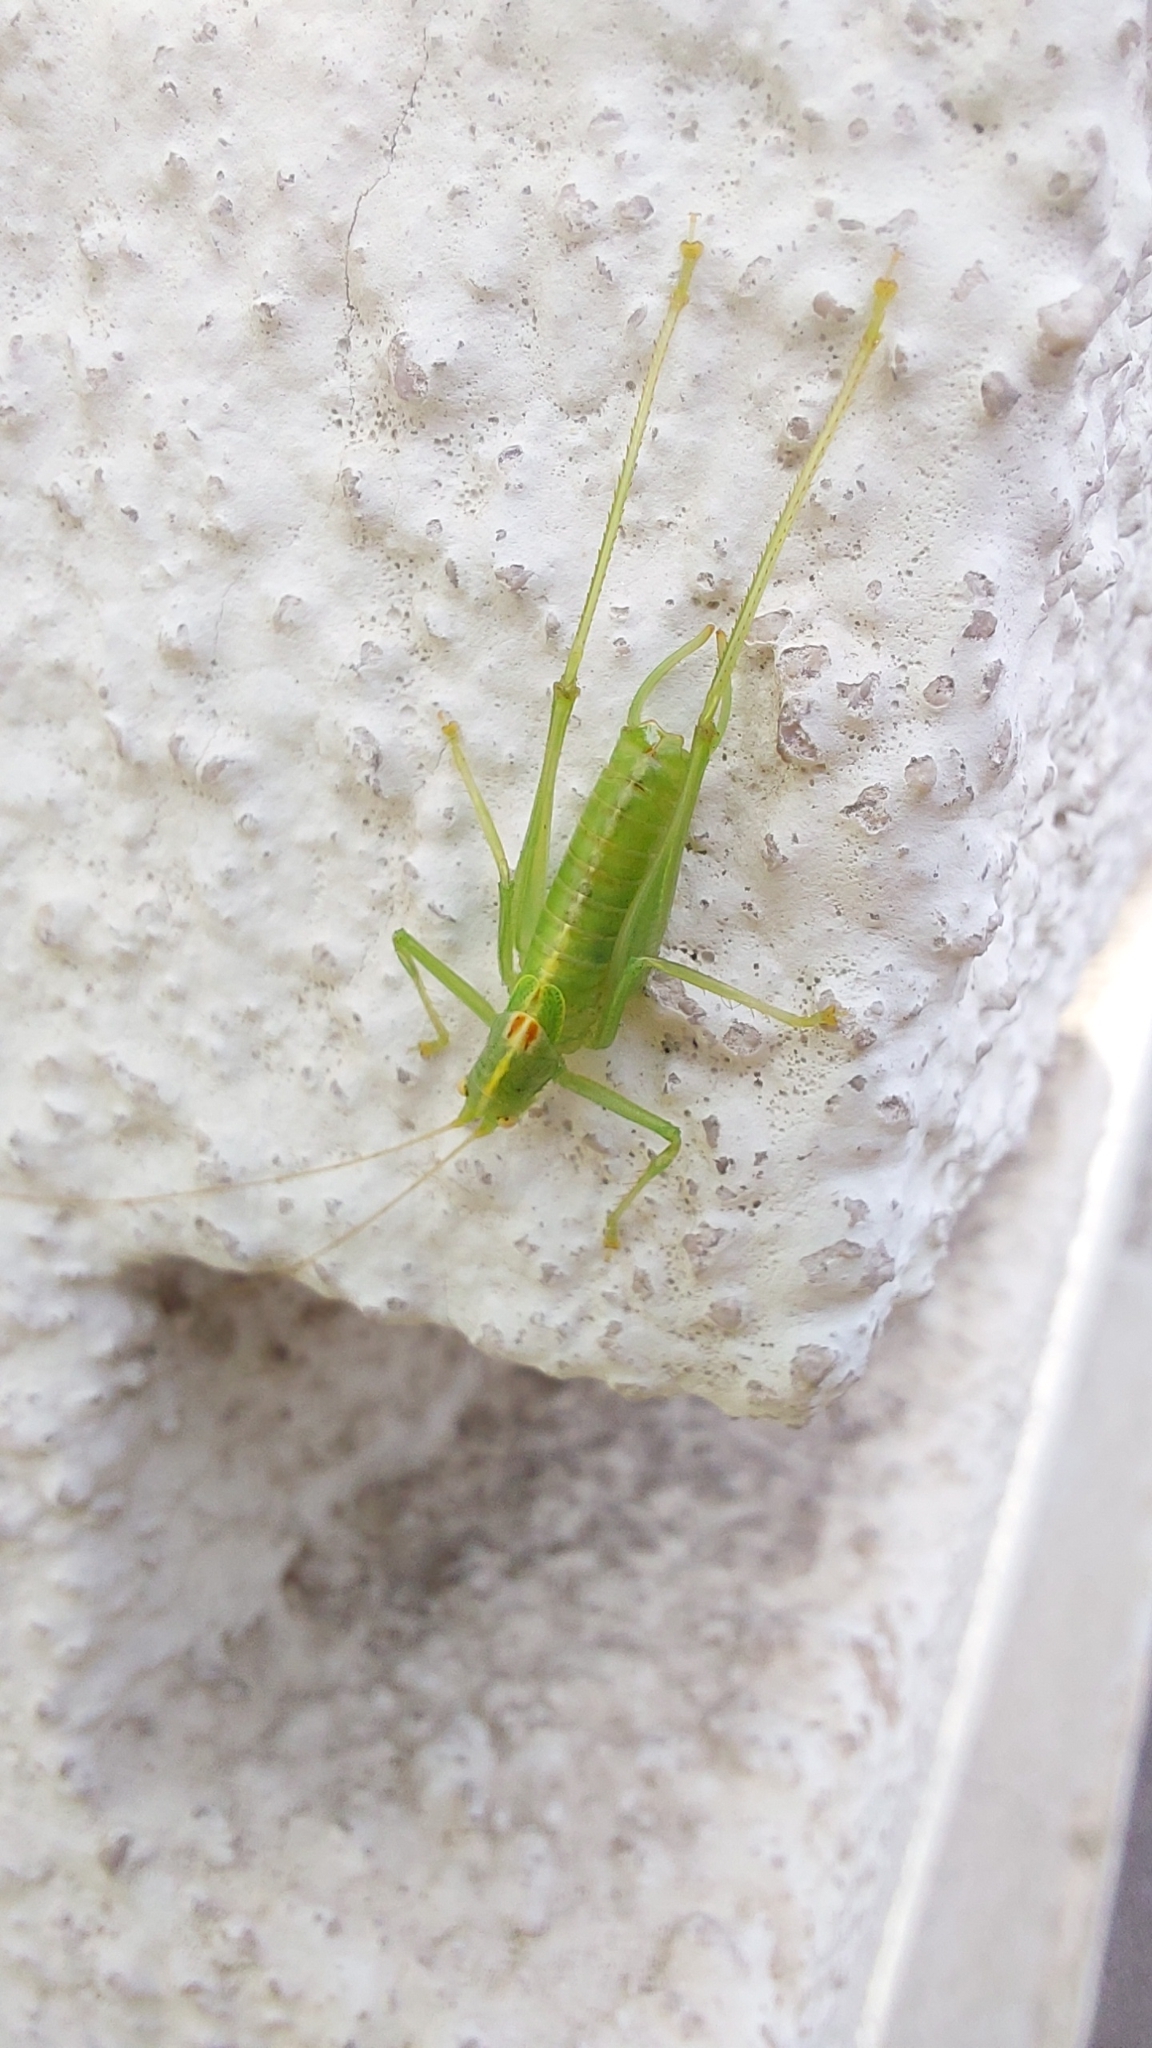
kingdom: Animalia
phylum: Arthropoda
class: Insecta
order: Orthoptera
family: Tettigoniidae
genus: Meconema
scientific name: Meconema meridionale
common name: Southern oak bush-cricket
